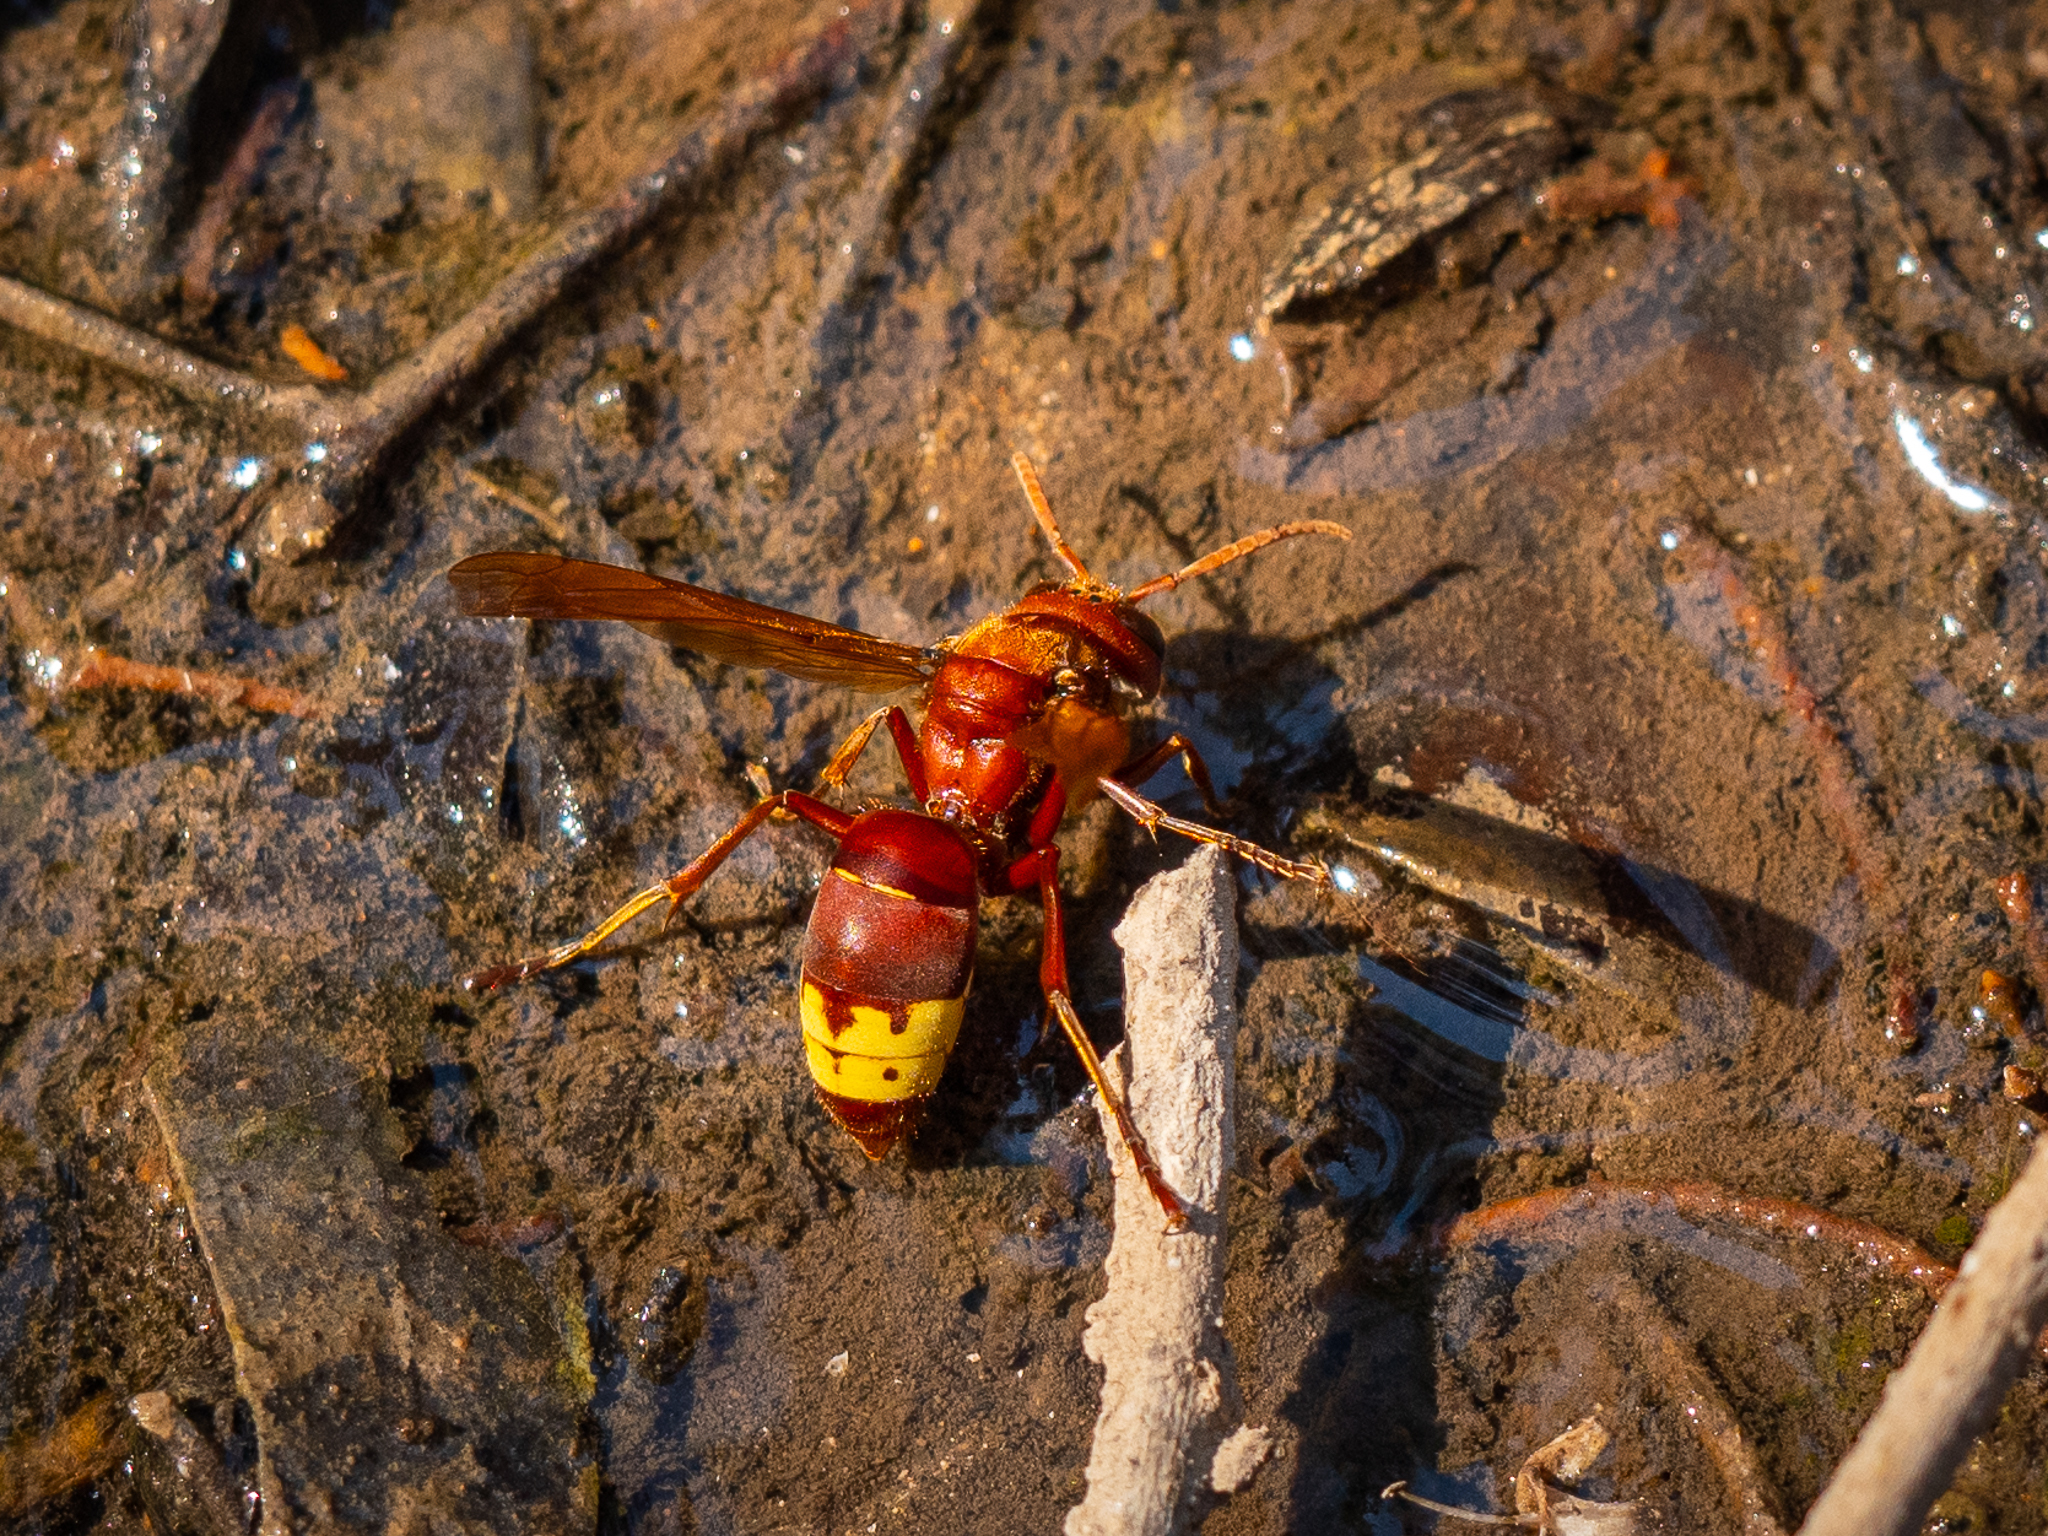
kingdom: Animalia
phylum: Arthropoda
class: Insecta
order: Hymenoptera
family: Vespidae
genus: Vespa
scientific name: Vespa orientalis
